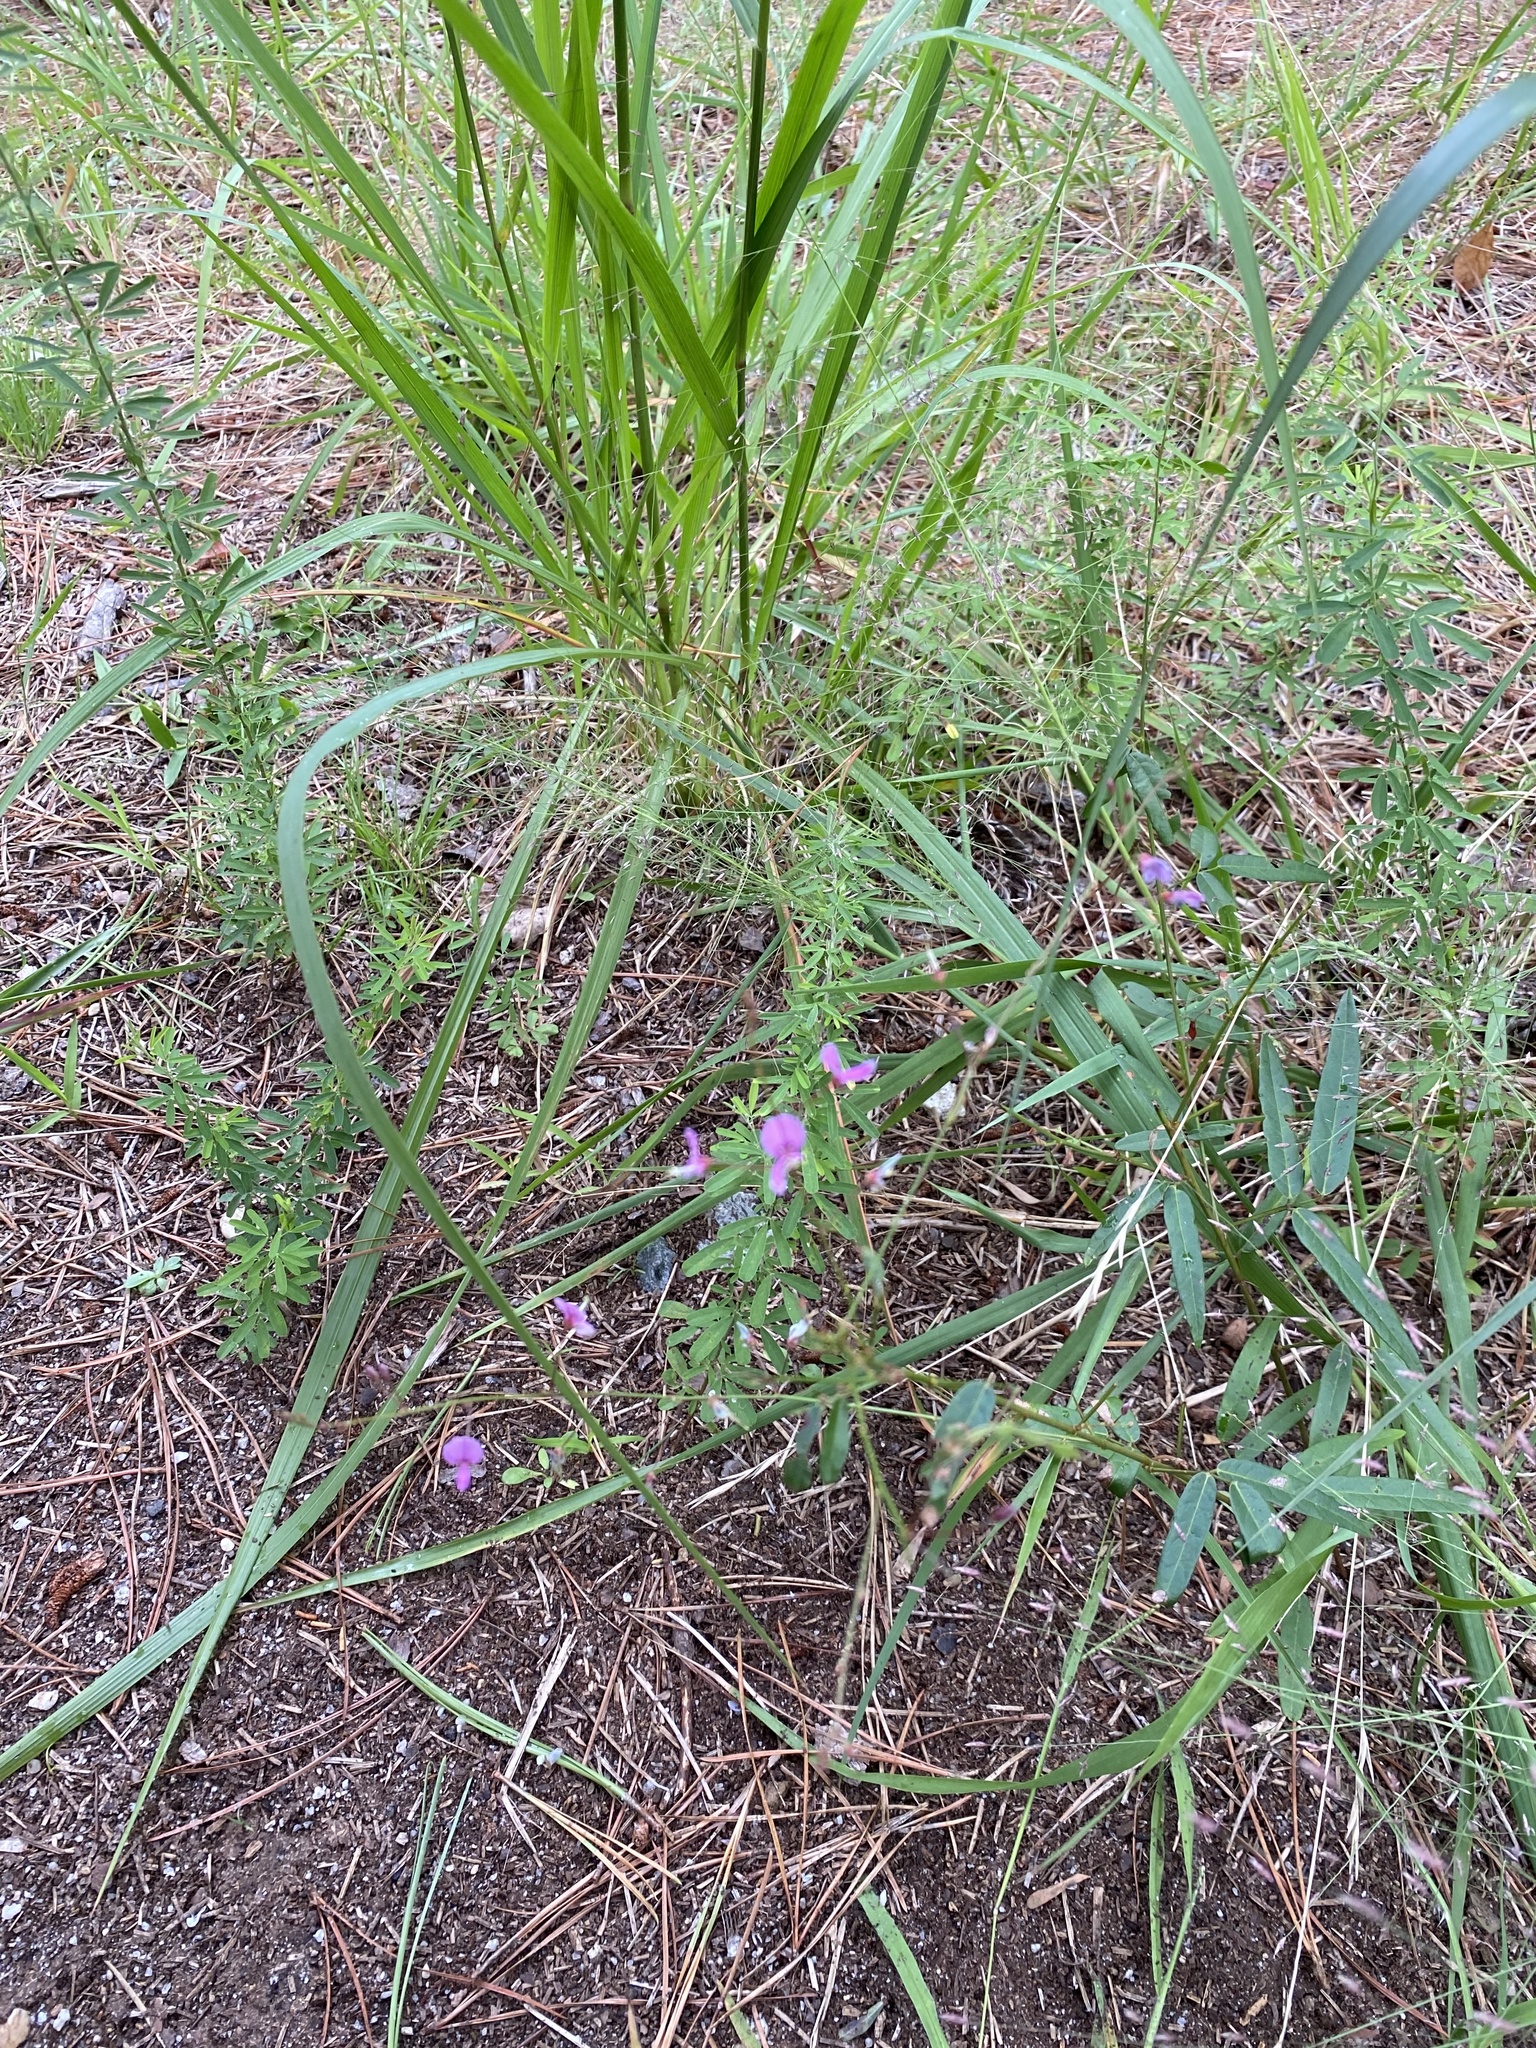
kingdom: Plantae
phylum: Tracheophyta
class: Magnoliopsida
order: Fabales
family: Fabaceae
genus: Desmodium
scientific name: Desmodium paniculatum
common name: Panicled tick-clover
